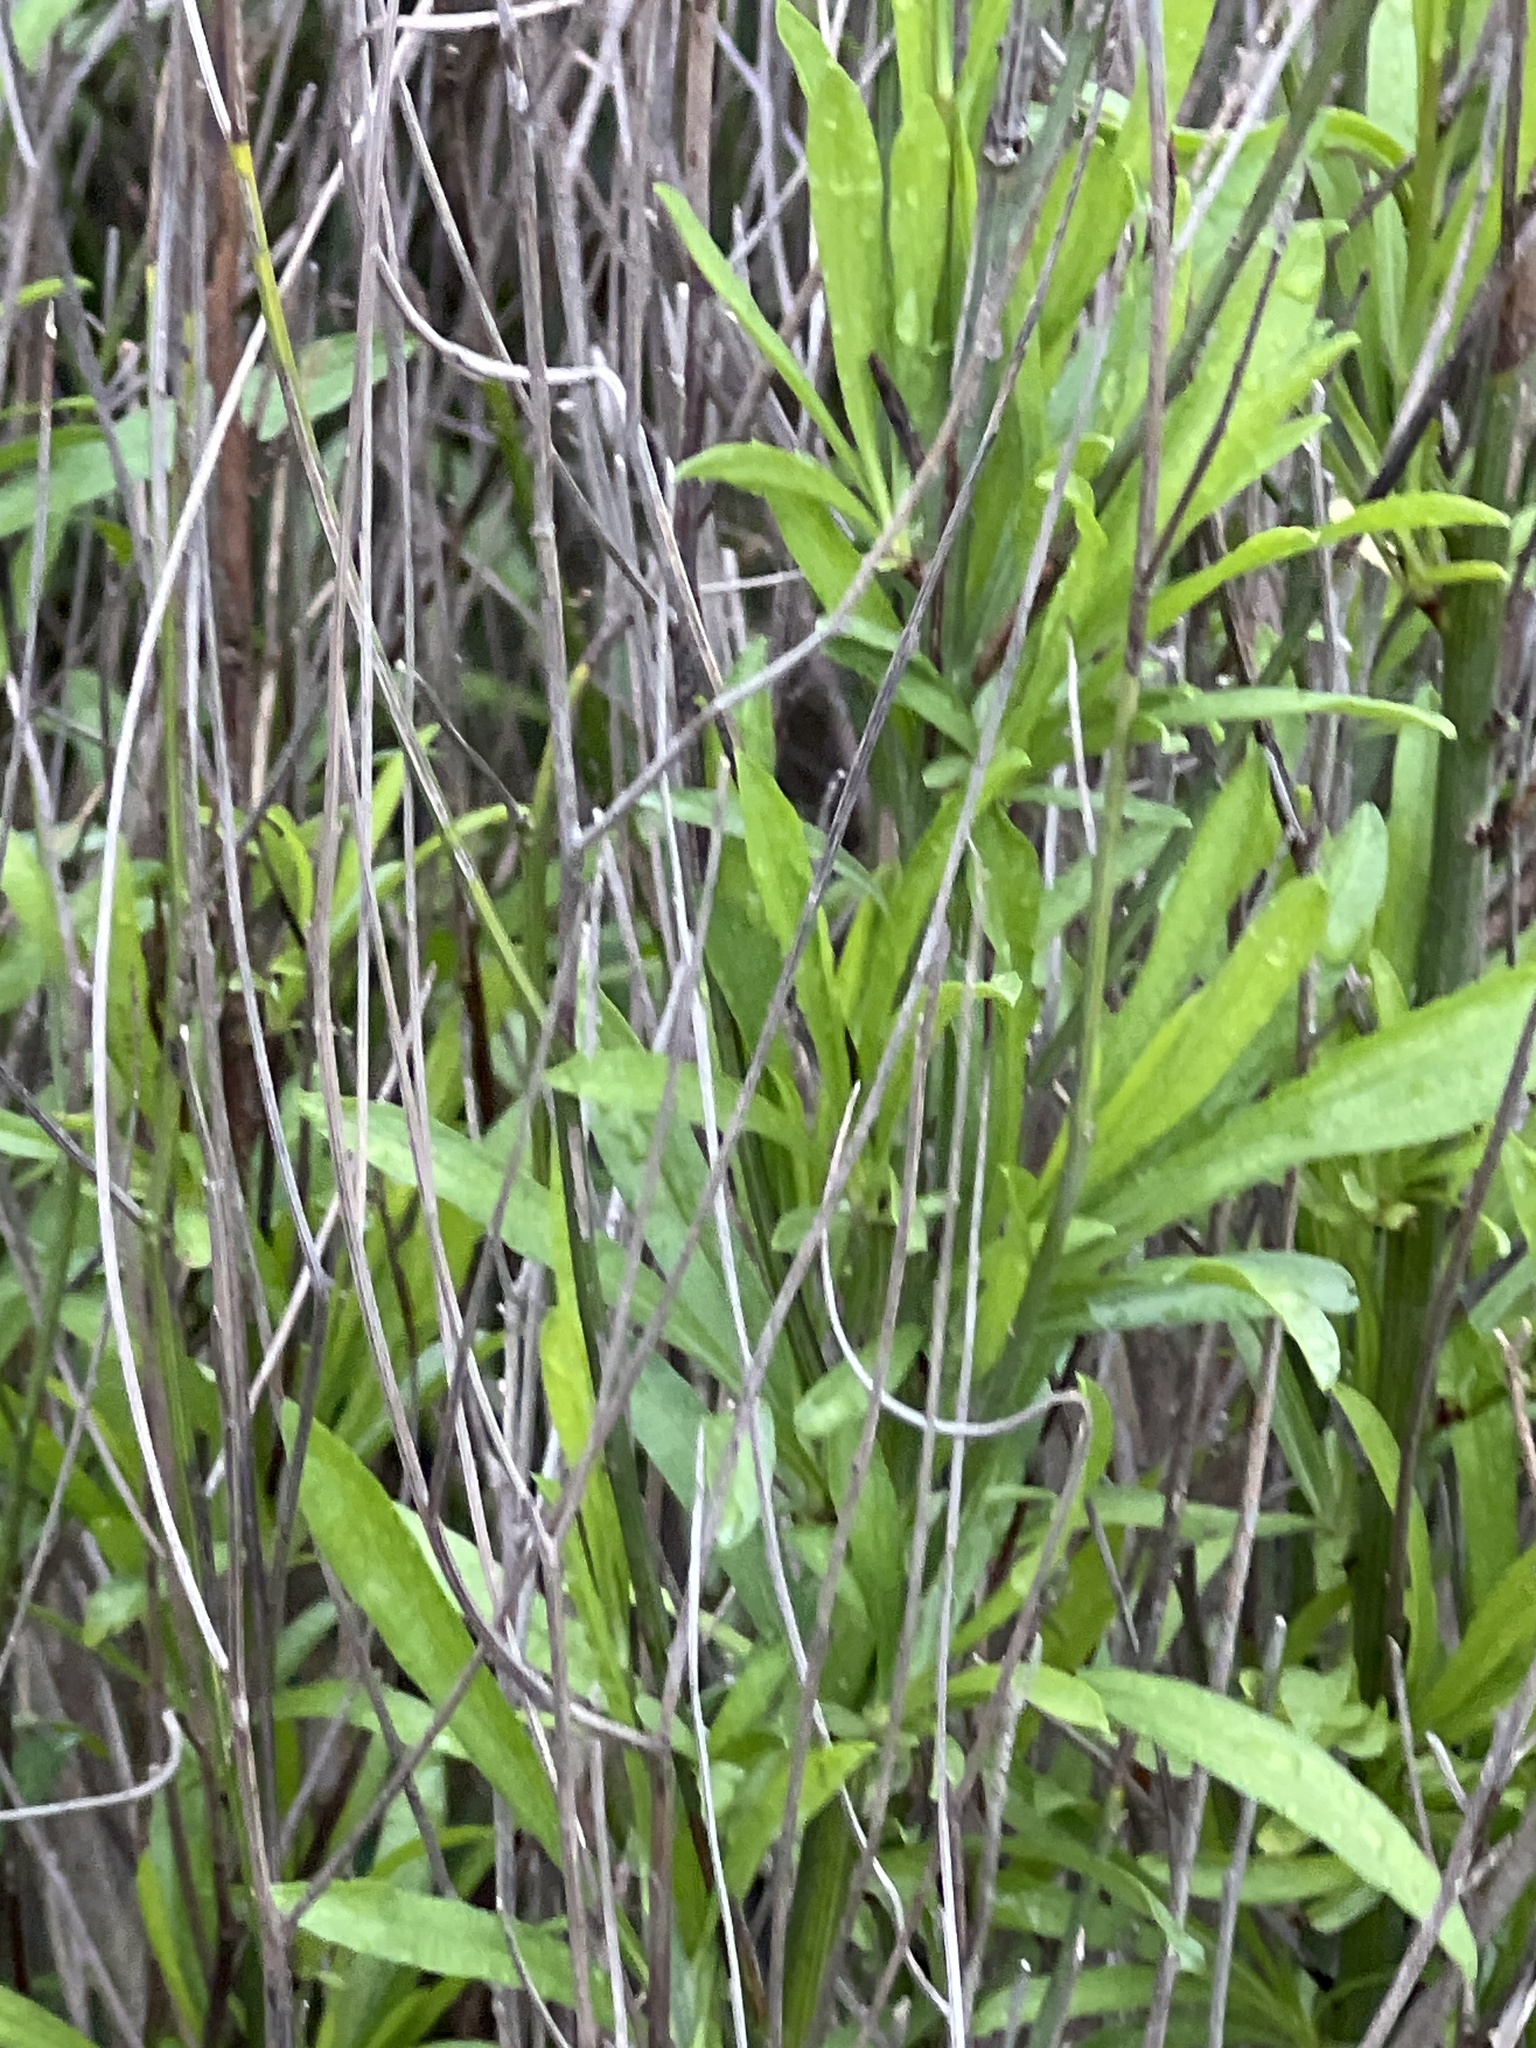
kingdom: Plantae
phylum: Tracheophyta
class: Magnoliopsida
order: Asterales
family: Asteraceae
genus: Baccharis
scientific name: Baccharis neglecta
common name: Roosevelt-weed
